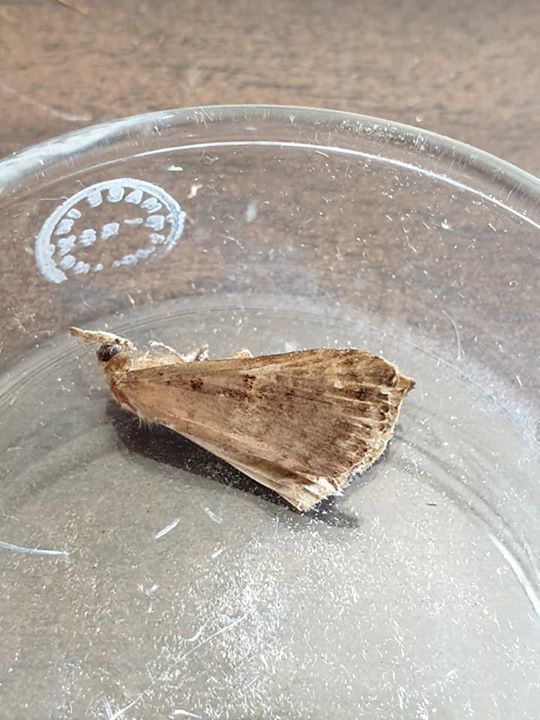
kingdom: Animalia
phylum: Arthropoda
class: Insecta
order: Lepidoptera
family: Erebidae
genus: Rhapsa
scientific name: Rhapsa scotosialis
